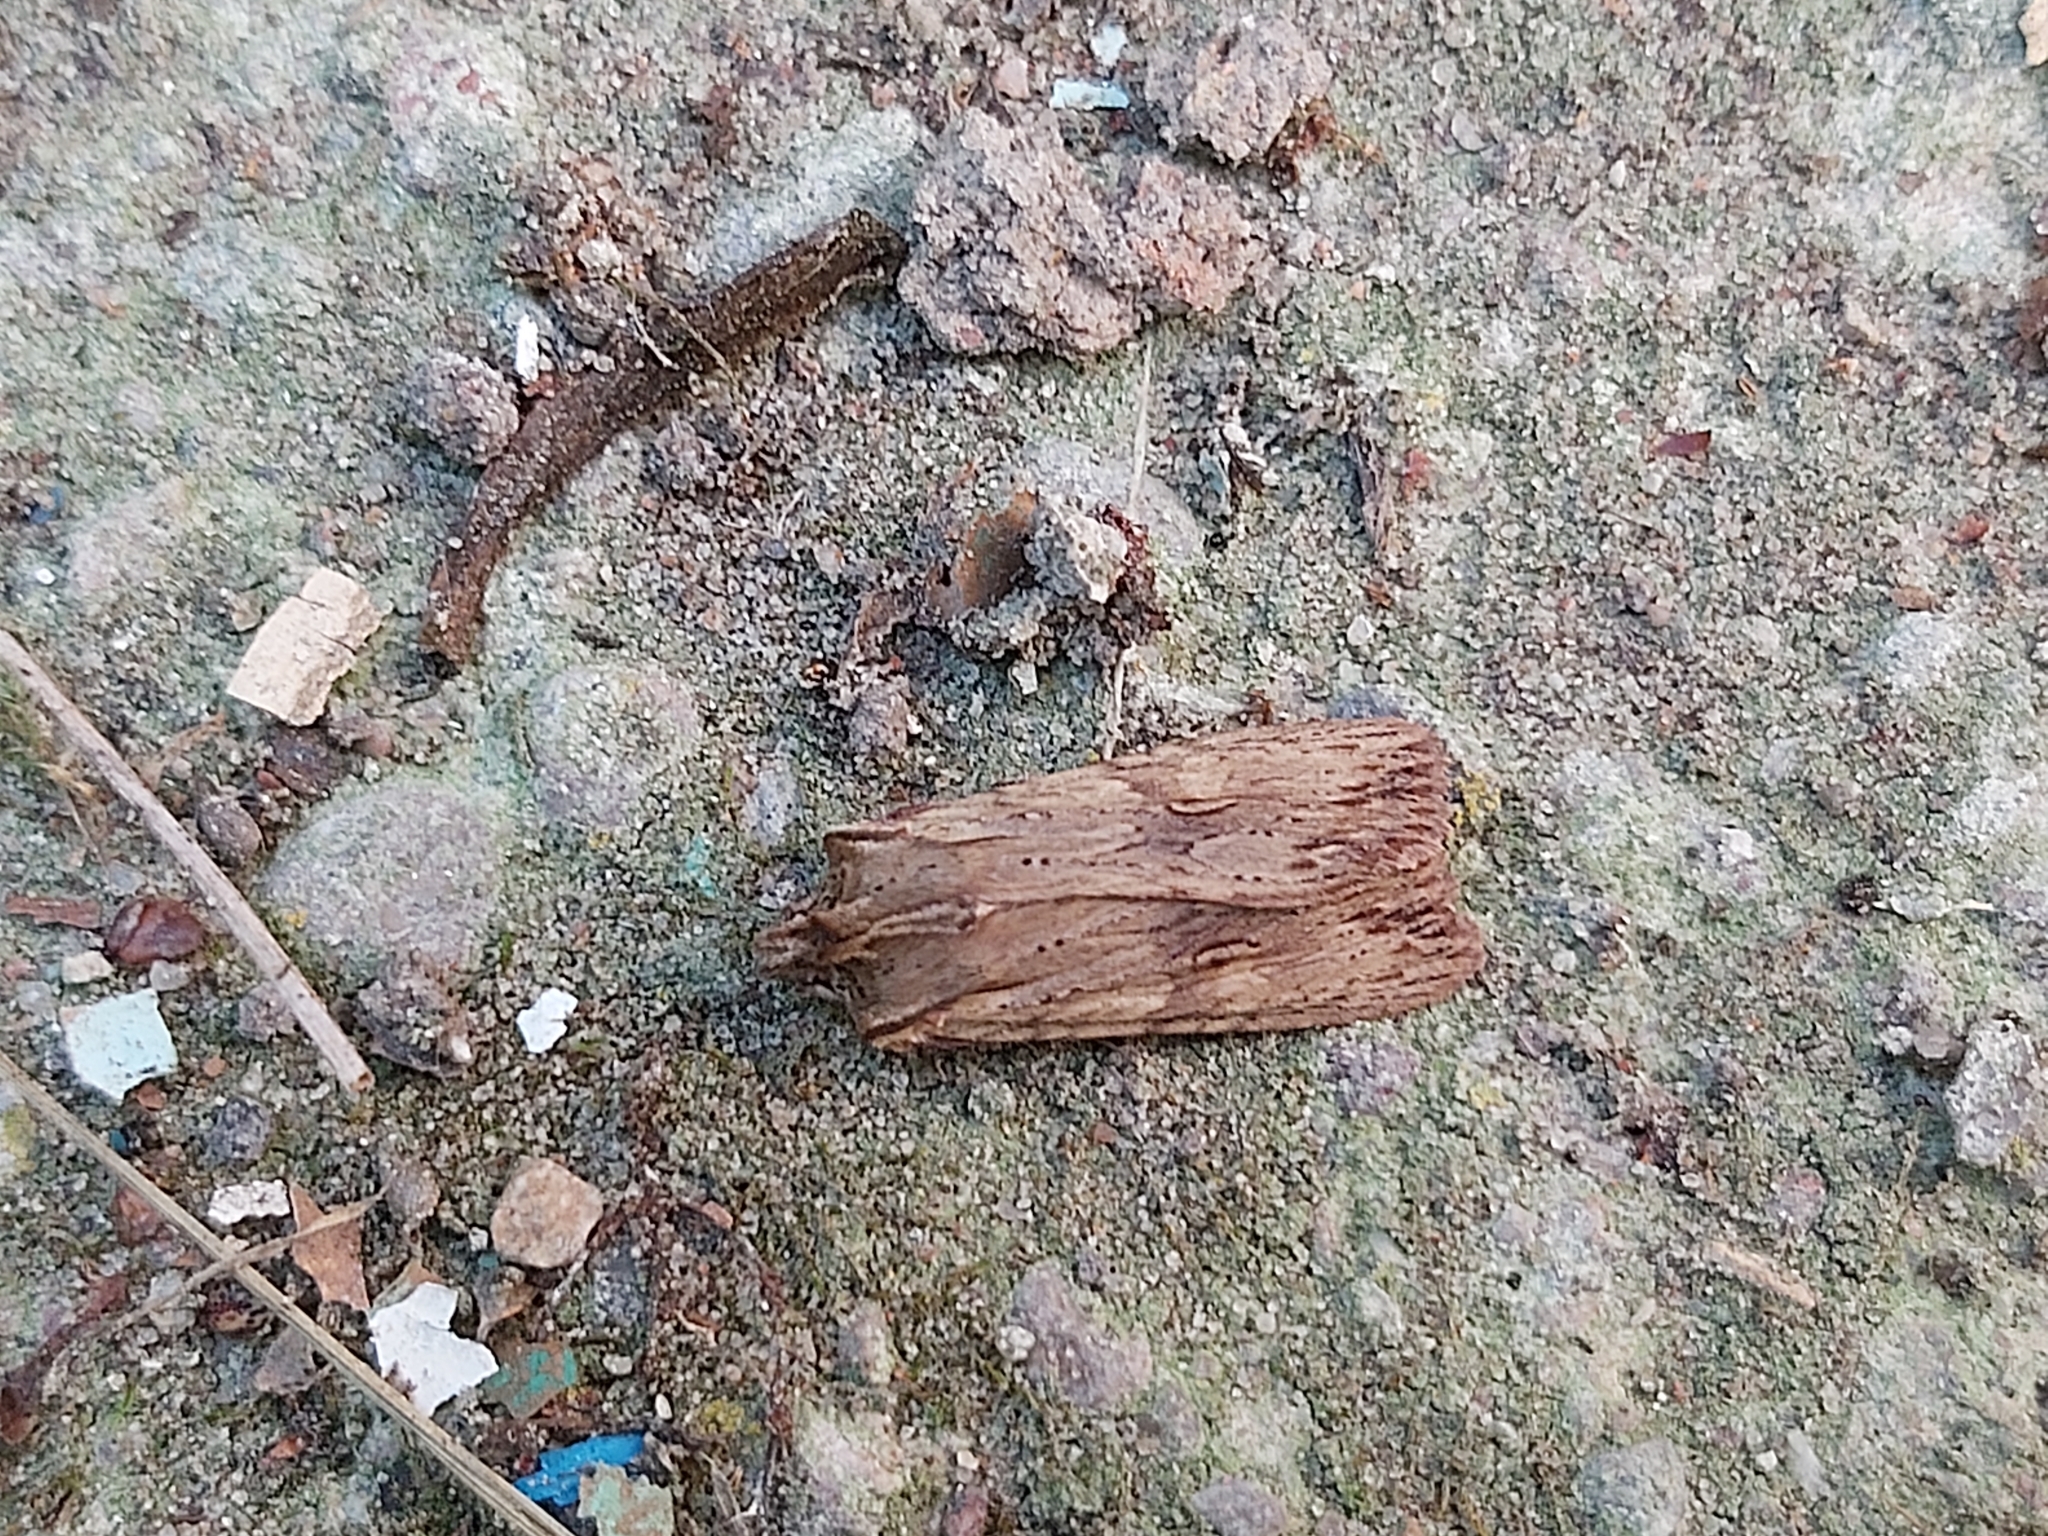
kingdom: Animalia
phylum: Arthropoda
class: Insecta
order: Lepidoptera
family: Noctuidae
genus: Lithophane
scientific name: Lithophane socia
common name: Pale pinion
